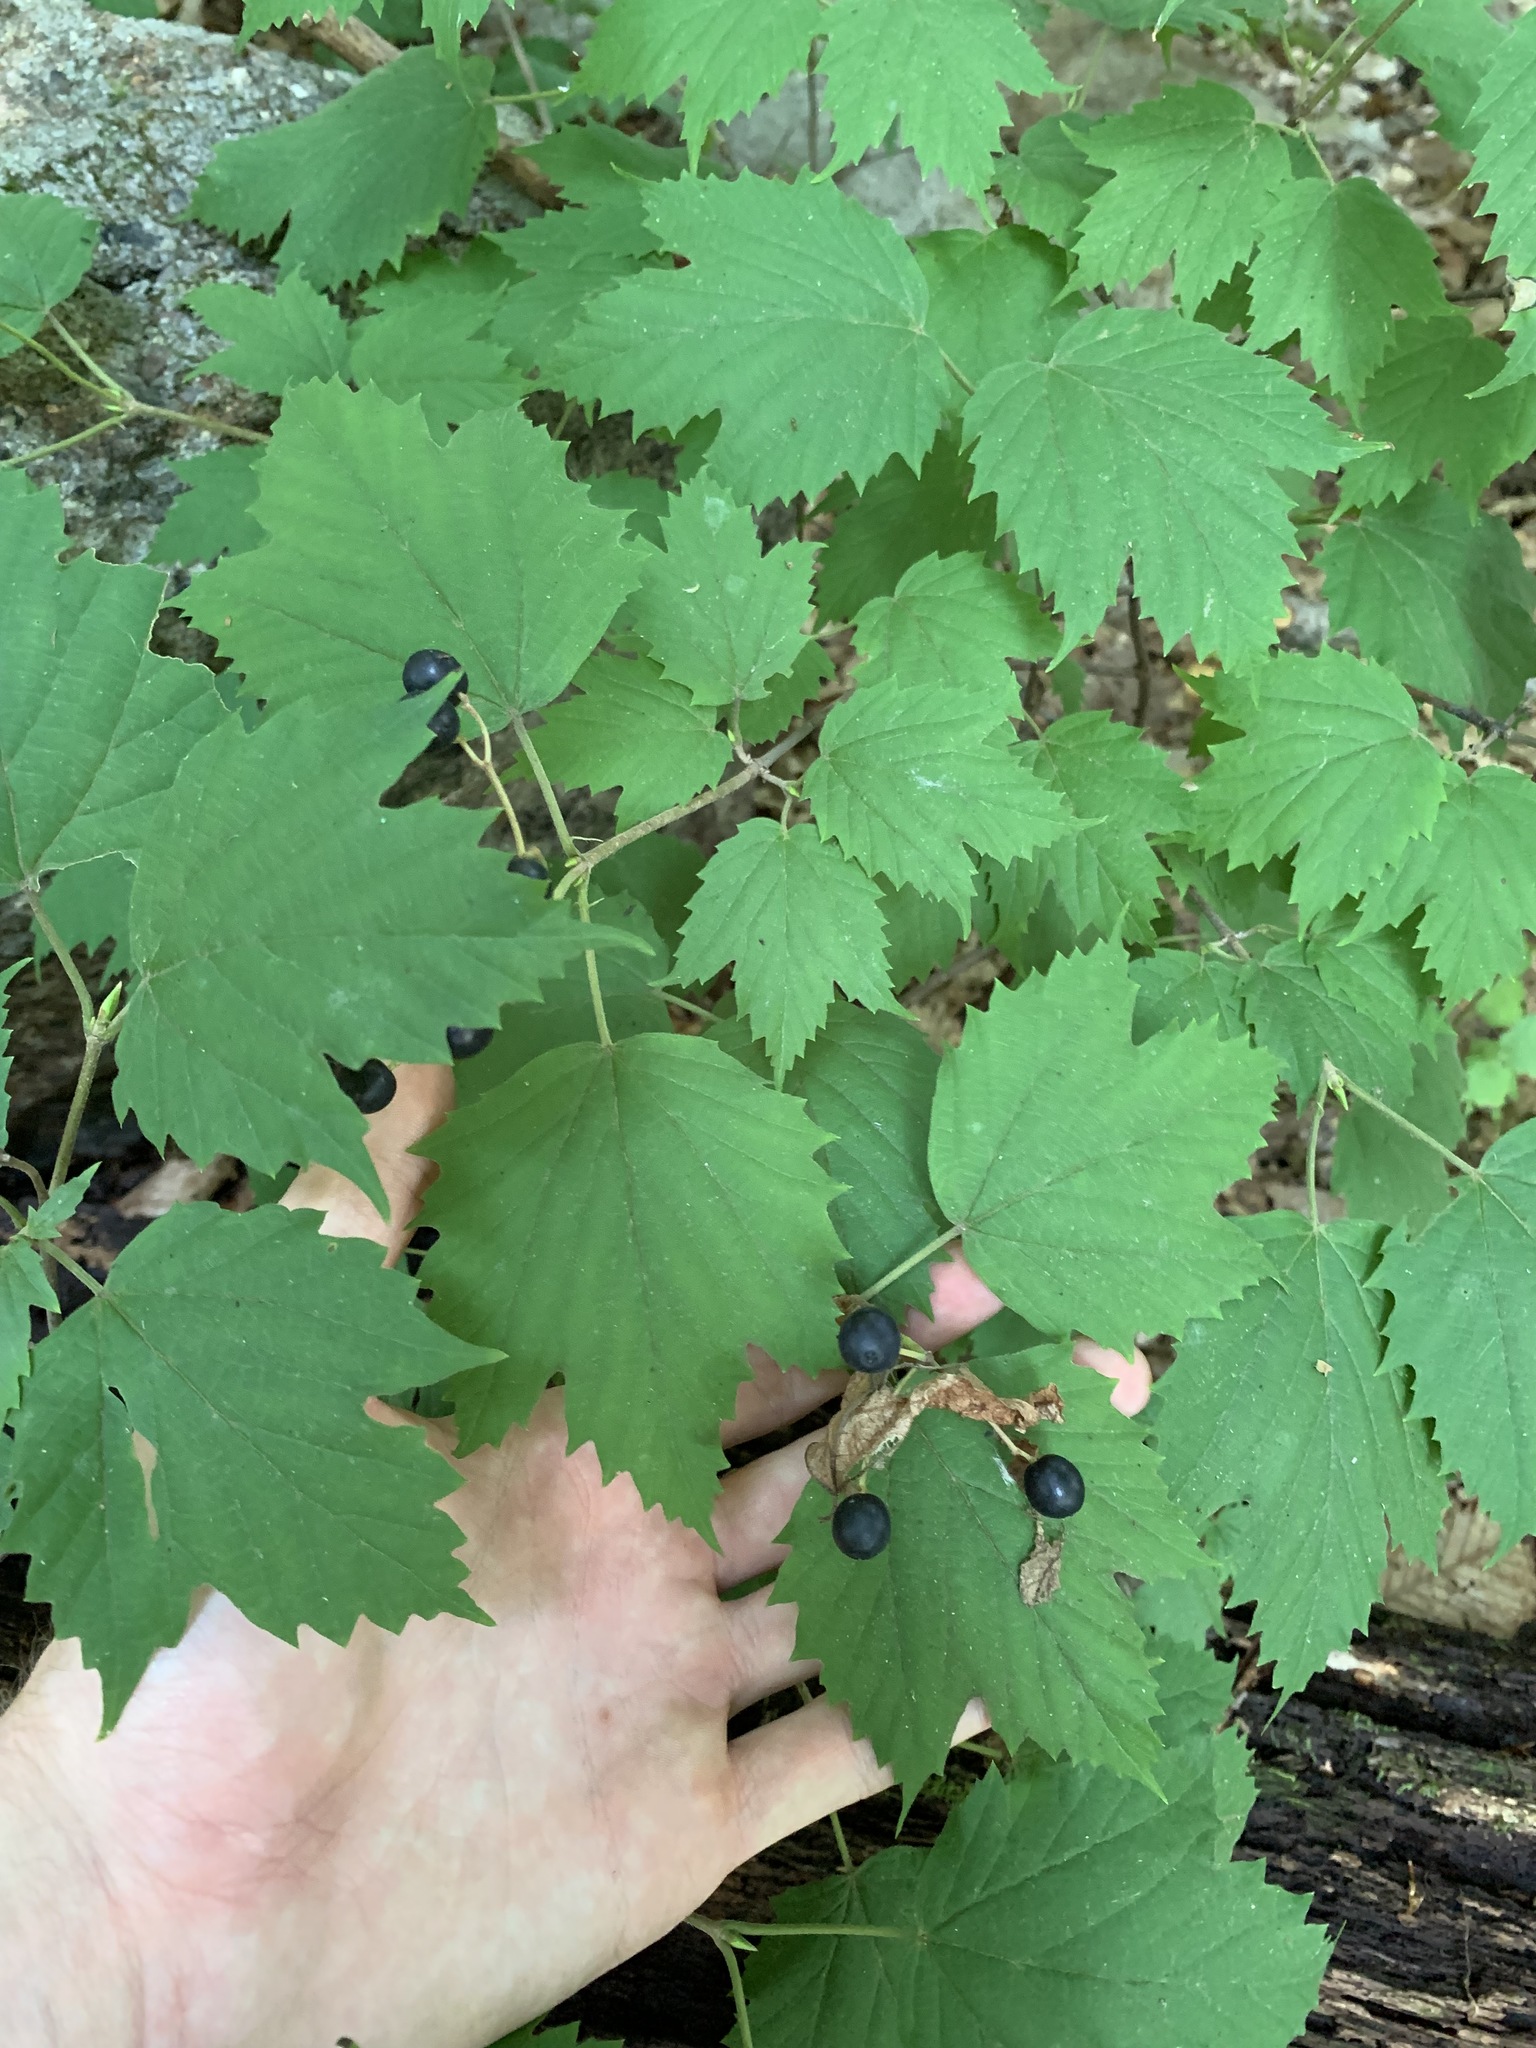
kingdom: Plantae
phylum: Tracheophyta
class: Magnoliopsida
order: Dipsacales
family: Viburnaceae
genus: Viburnum
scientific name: Viburnum acerifolium
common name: Dockmackie
